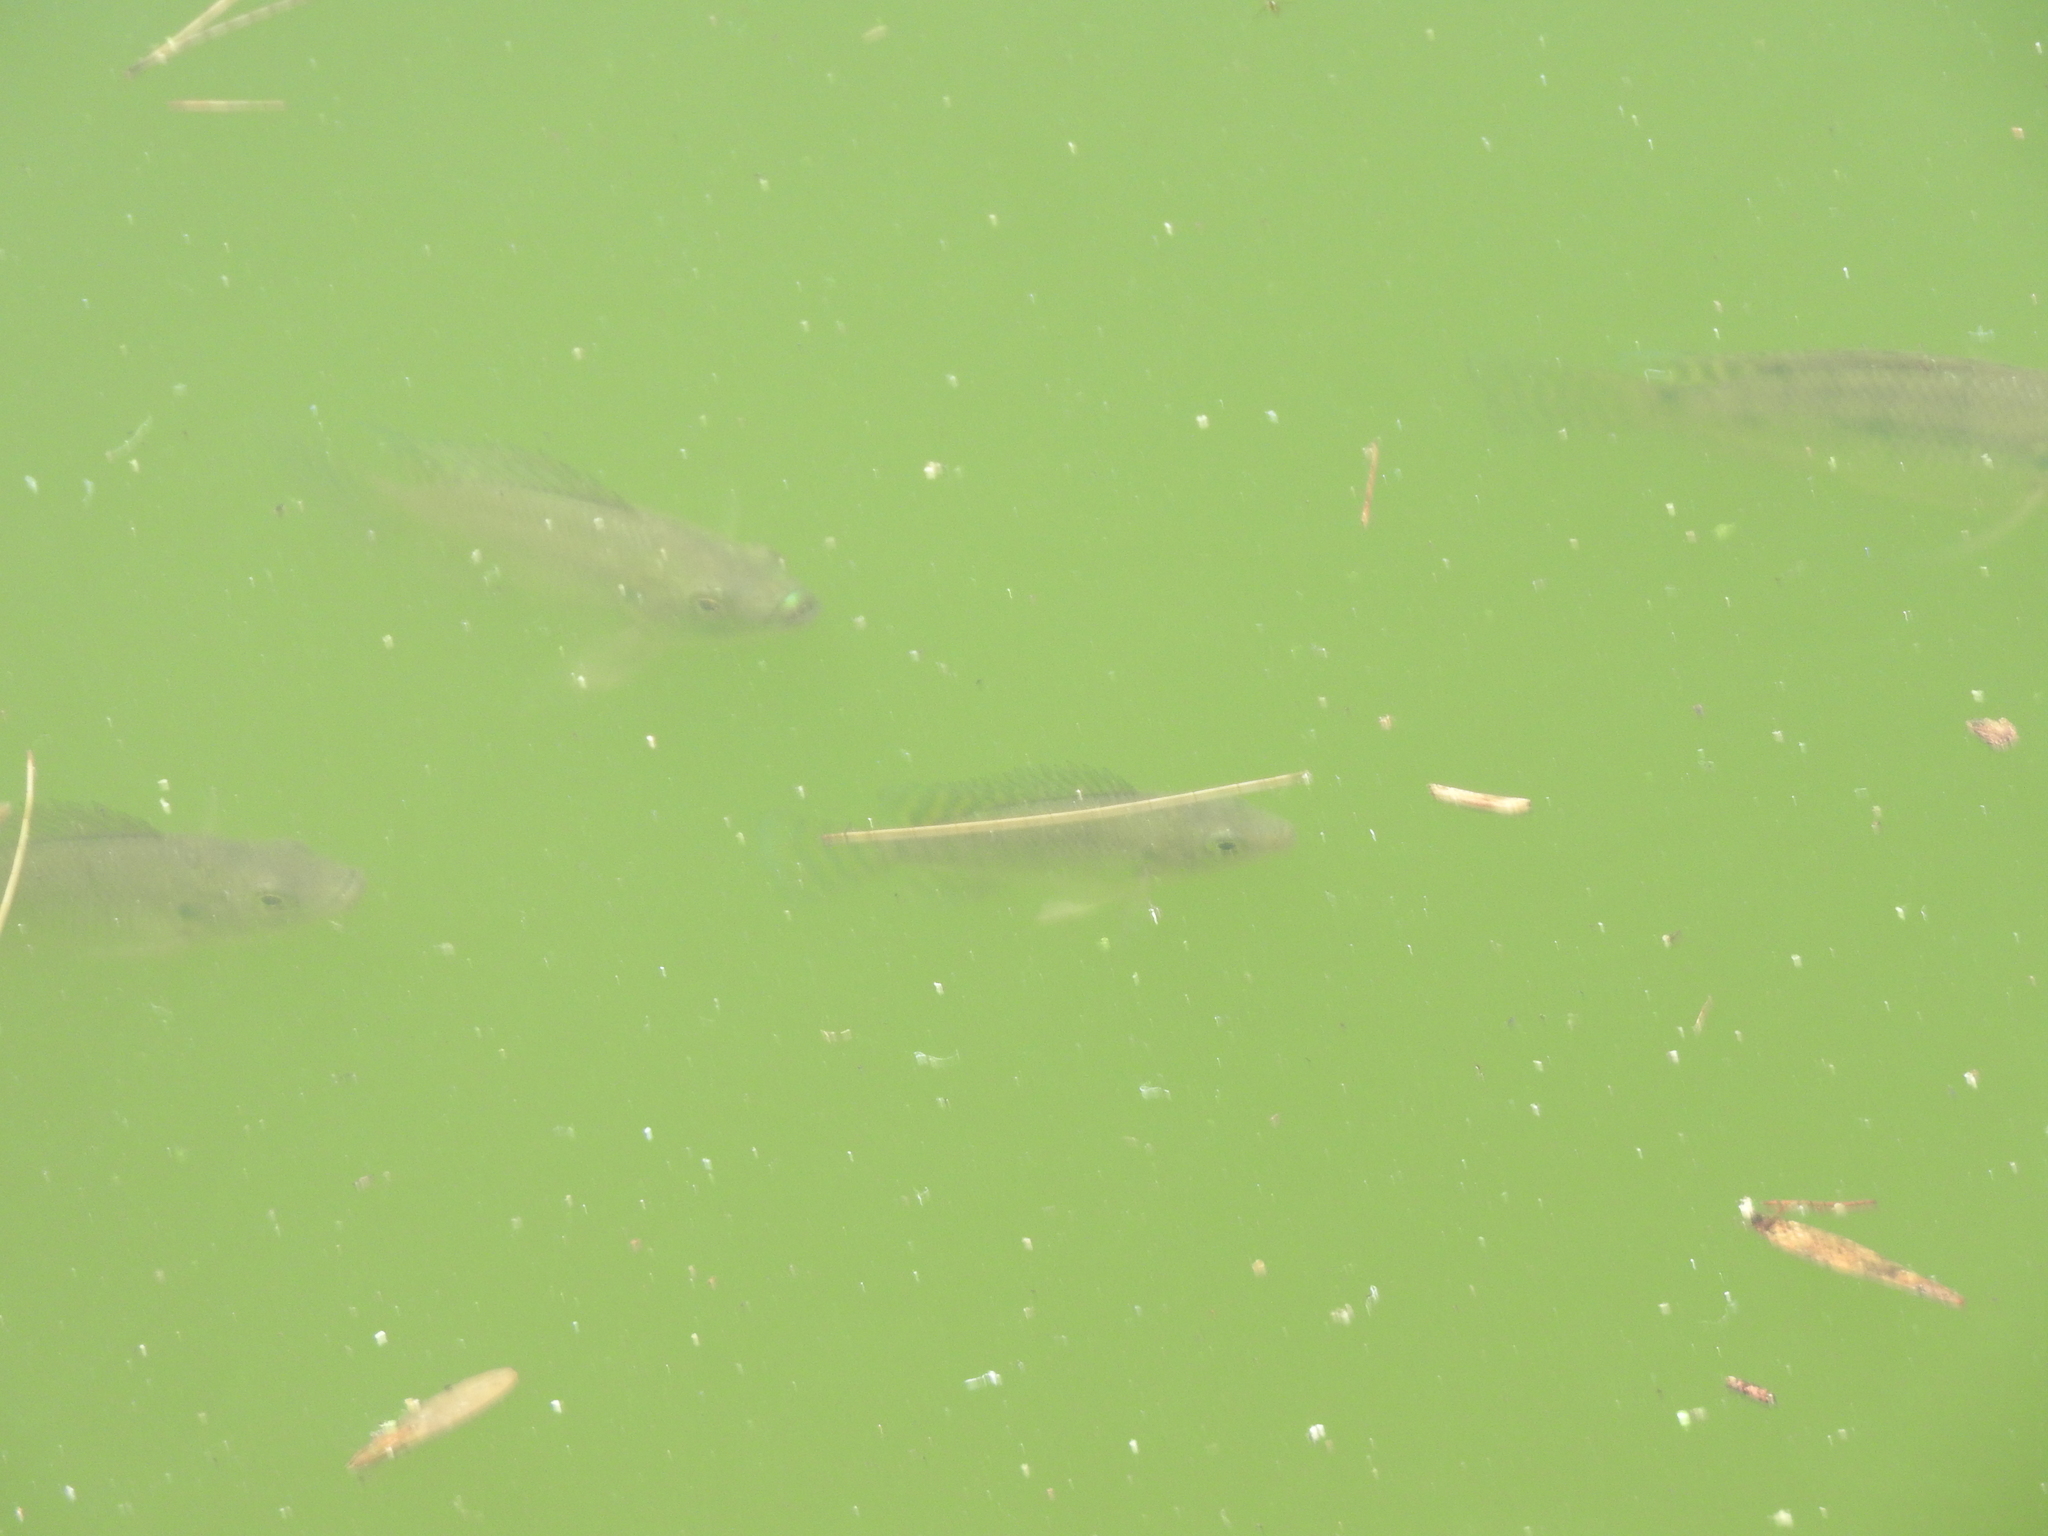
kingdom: Animalia
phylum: Chordata
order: Perciformes
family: Cichlidae
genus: Oreochromis
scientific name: Oreochromis niloticus
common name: Nile tilapia
